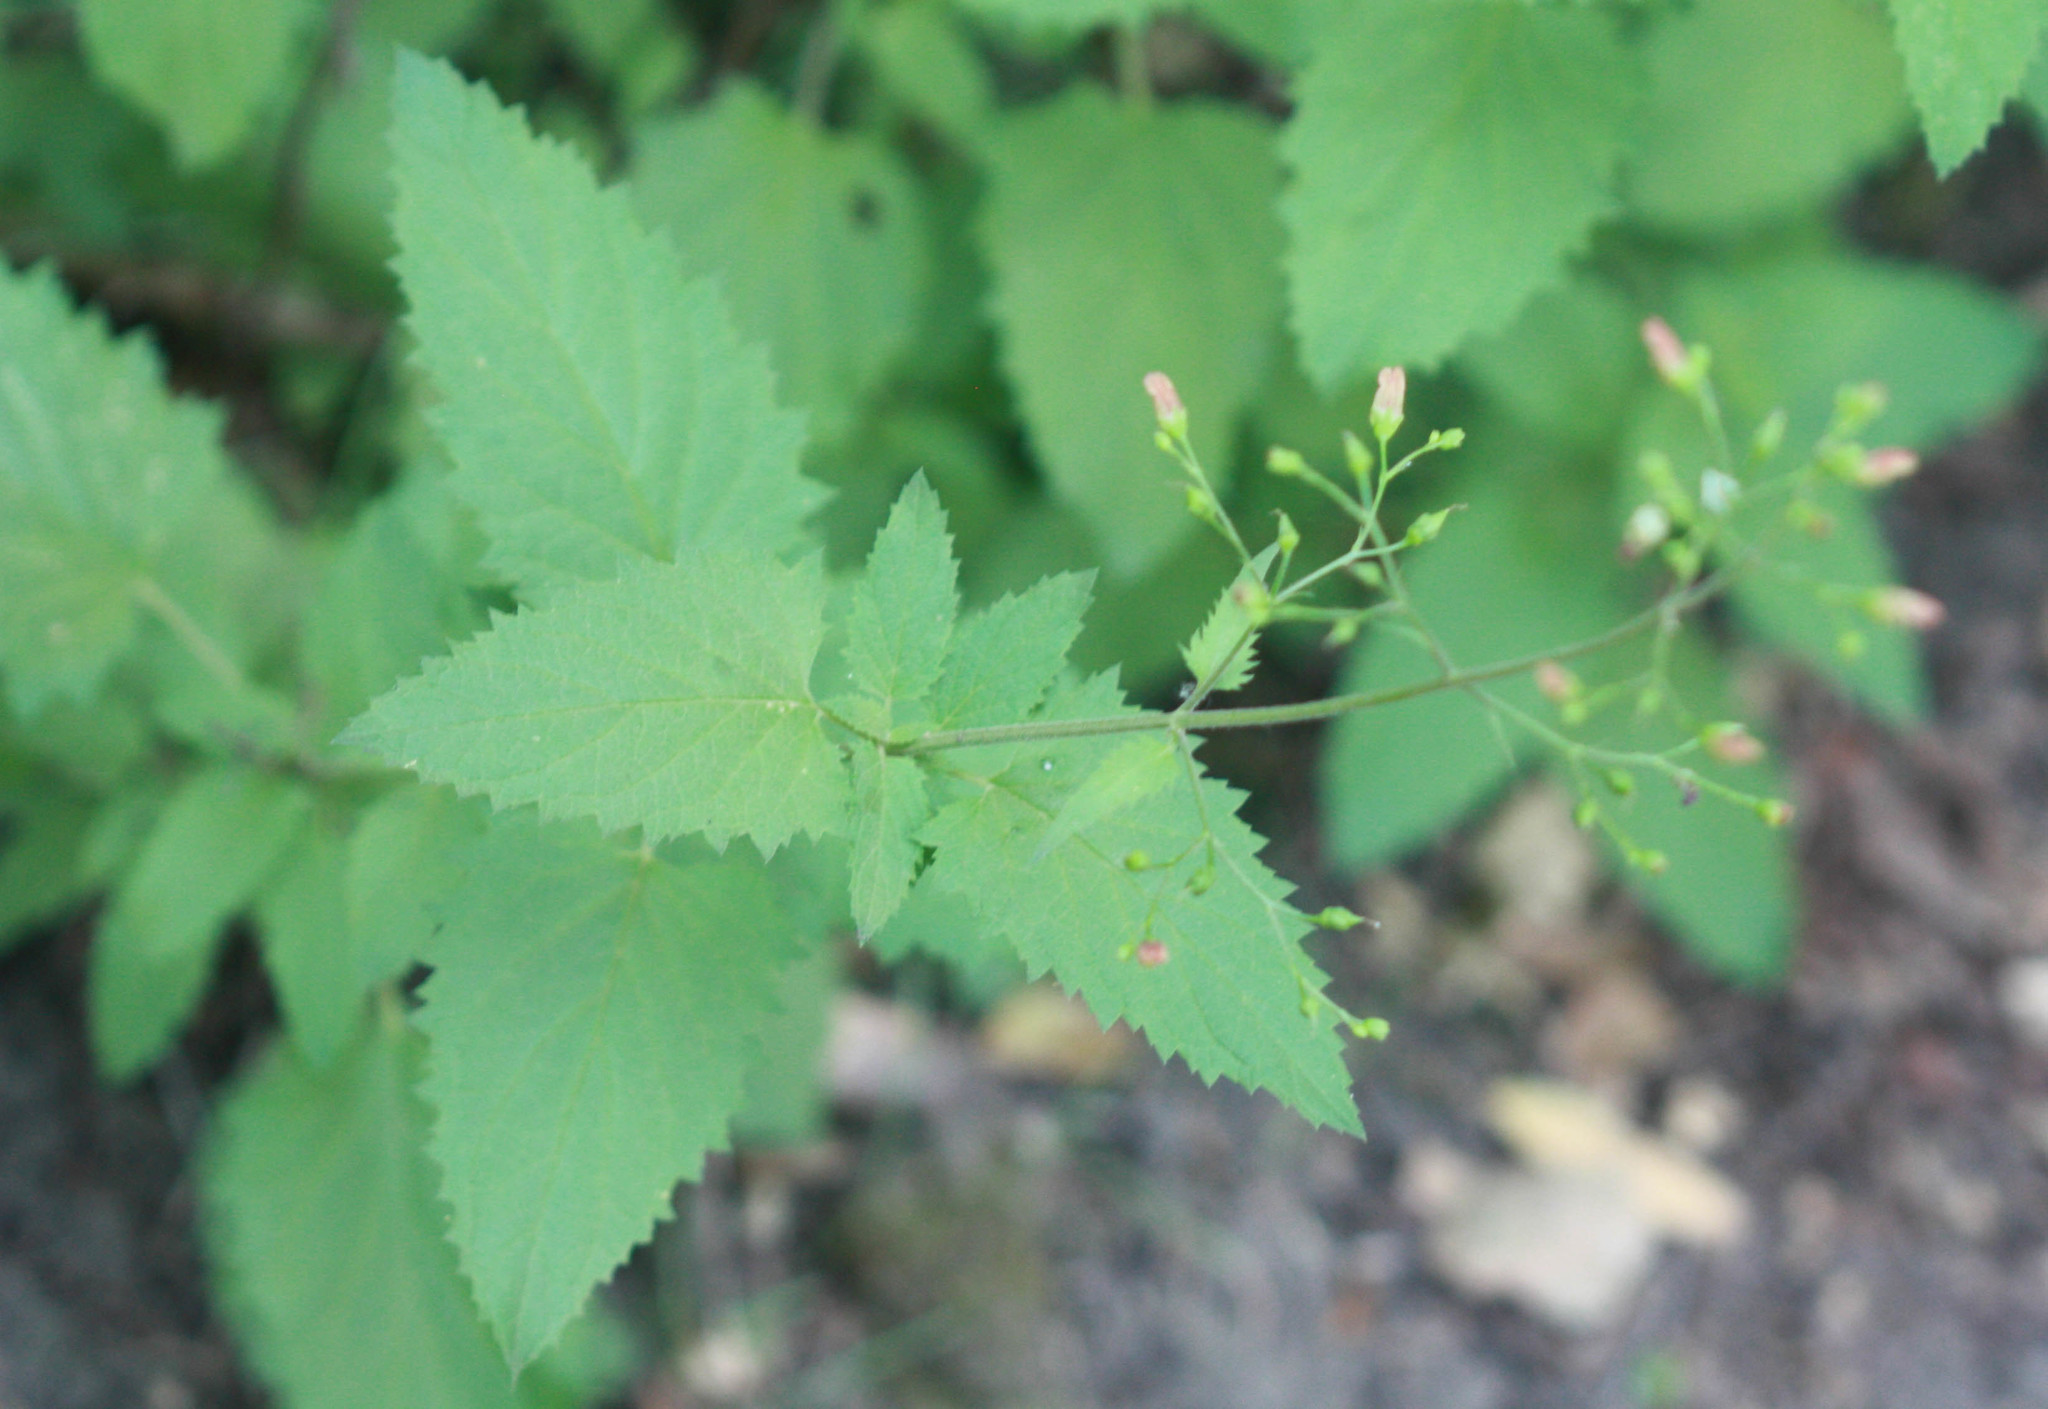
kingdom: Plantae
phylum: Tracheophyta
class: Magnoliopsida
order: Lamiales
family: Scrophulariaceae
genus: Scrophularia
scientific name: Scrophularia californica
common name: California figwort
